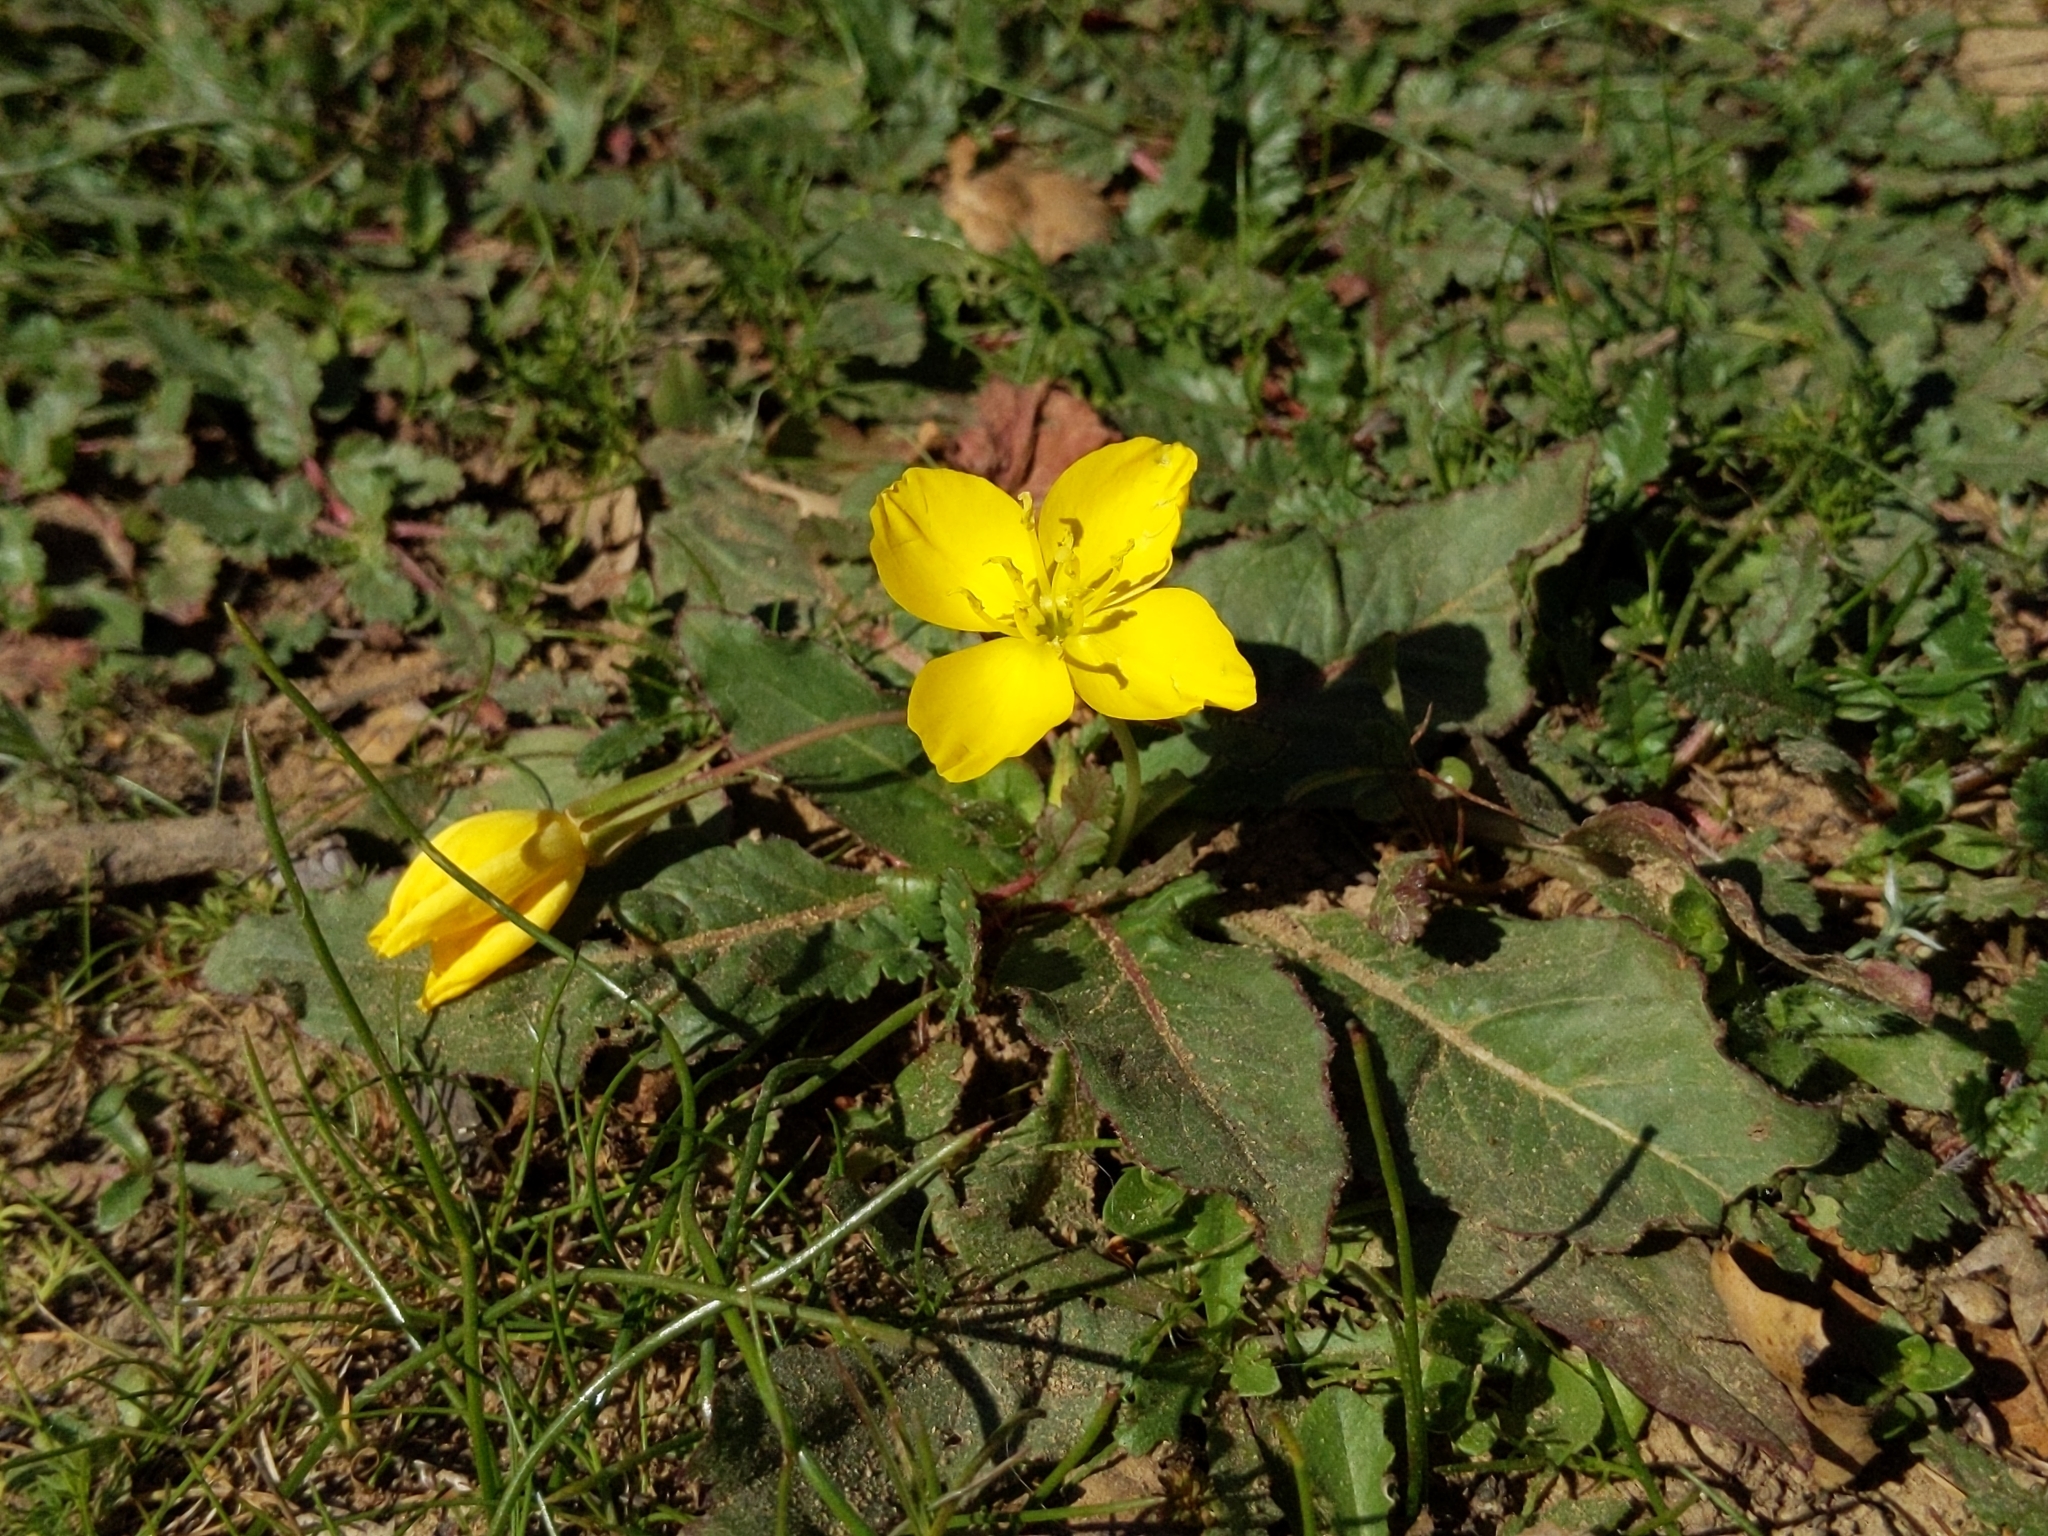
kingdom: Plantae
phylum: Tracheophyta
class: Magnoliopsida
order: Myrtales
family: Onagraceae
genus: Taraxia
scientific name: Taraxia ovata
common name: Goldeneggs
